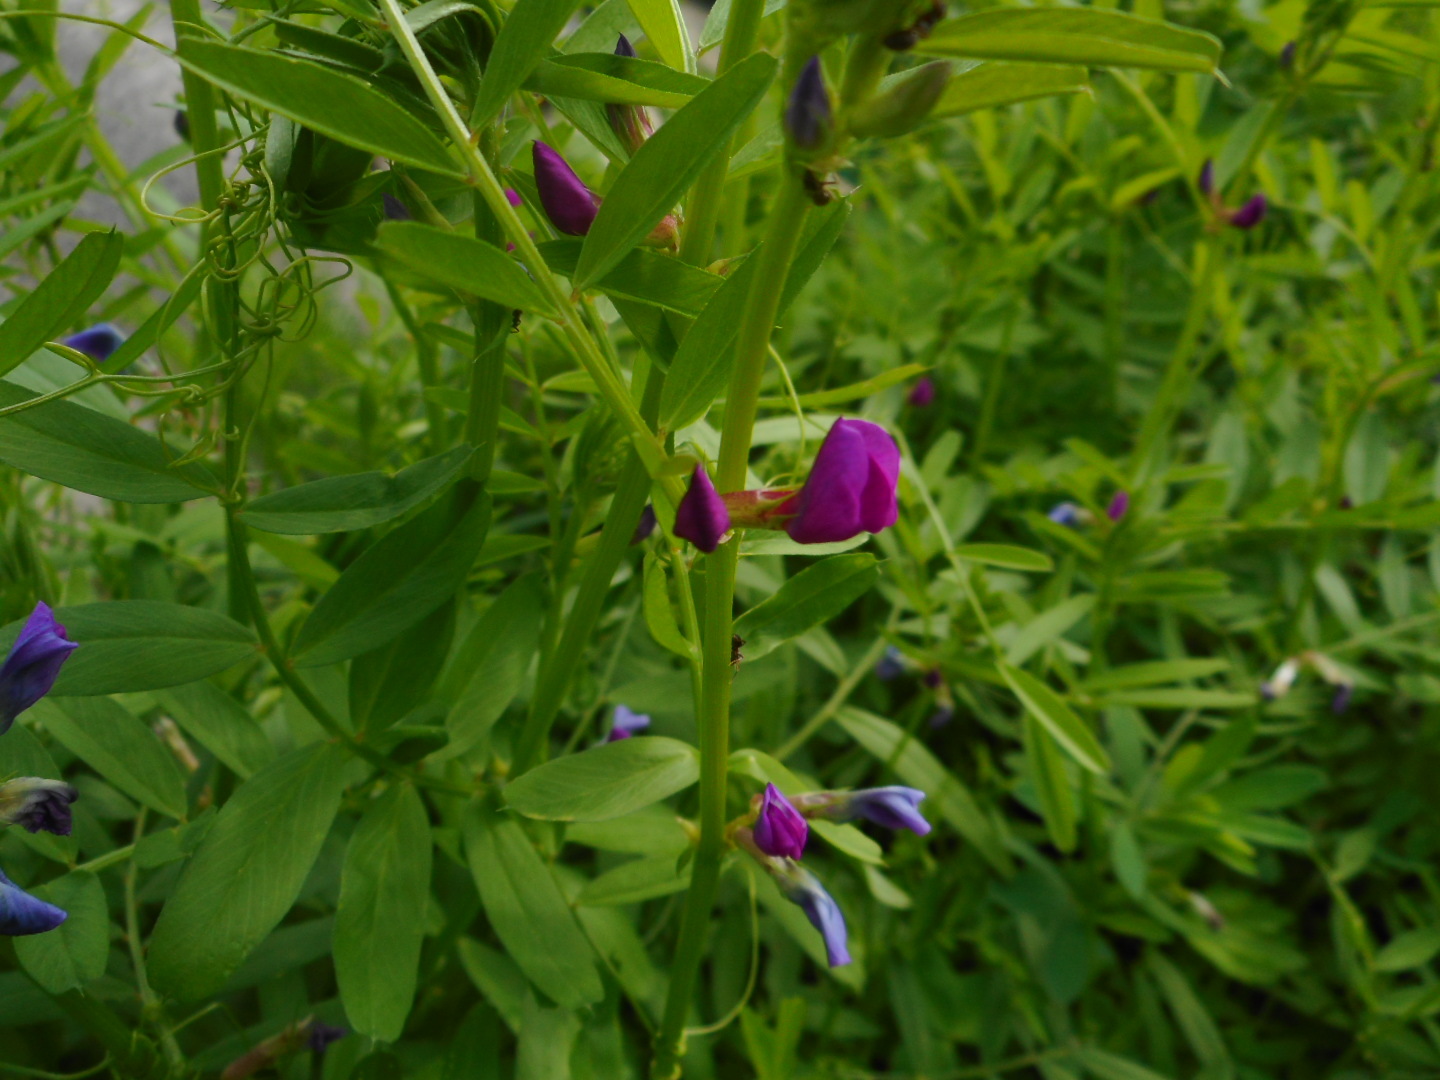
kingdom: Plantae
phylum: Tracheophyta
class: Magnoliopsida
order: Fabales
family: Fabaceae
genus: Vicia
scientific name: Vicia sativa
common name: Garden vetch
